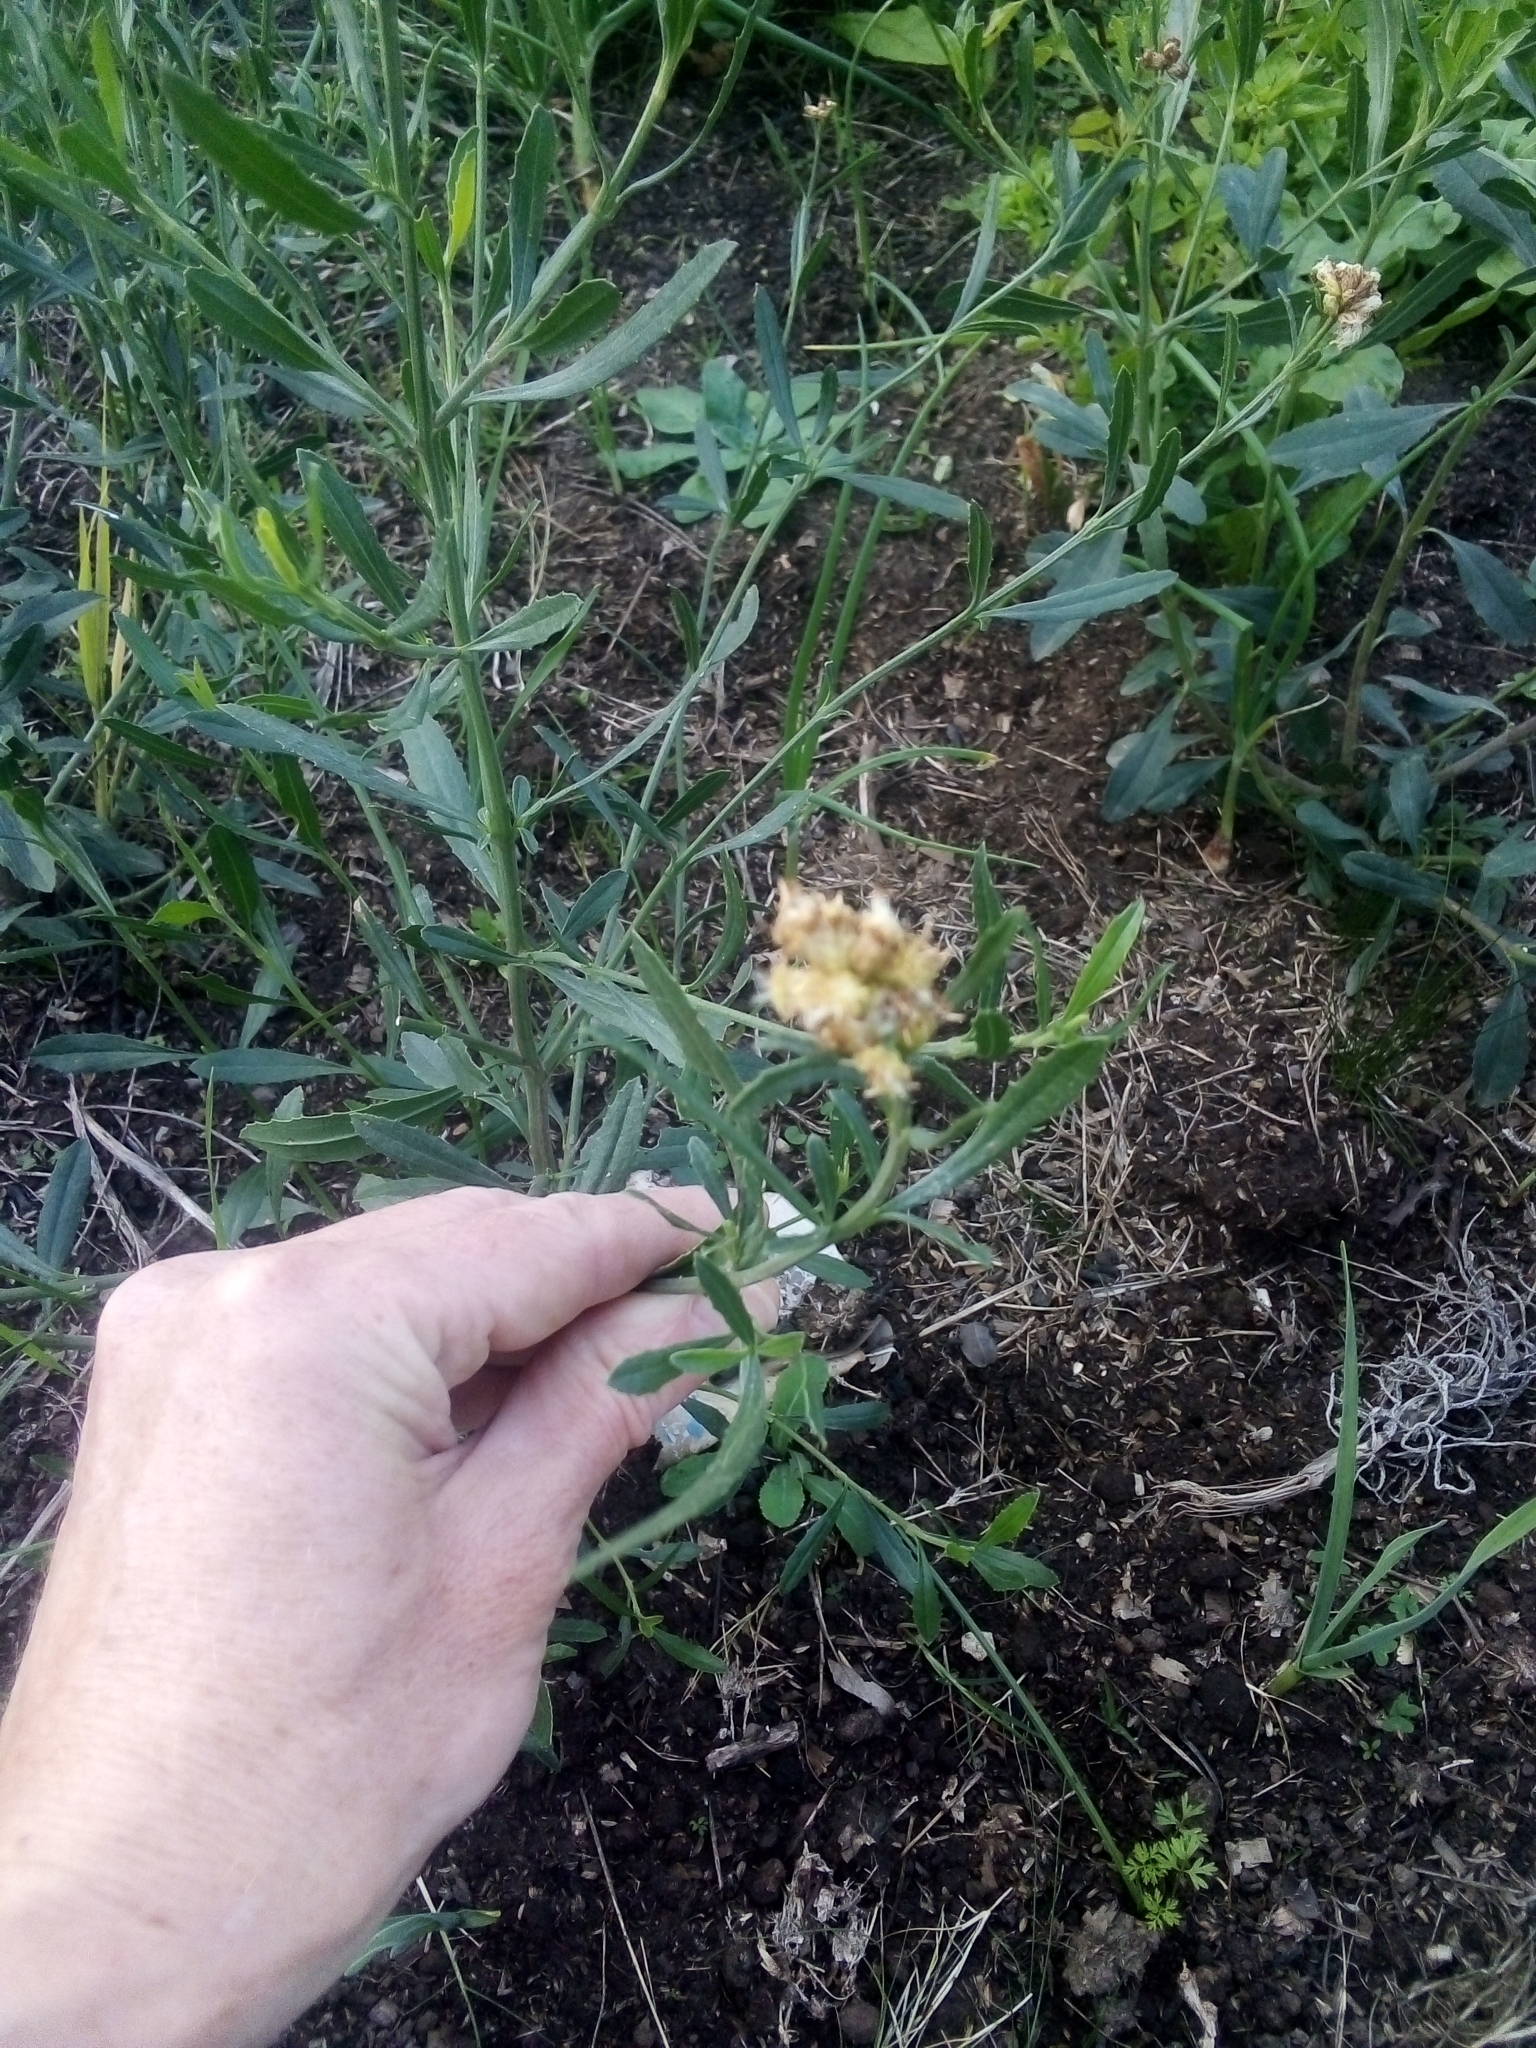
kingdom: Plantae
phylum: Tracheophyta
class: Magnoliopsida
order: Asterales
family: Asteraceae
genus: Baccharis
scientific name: Baccharis spicata
